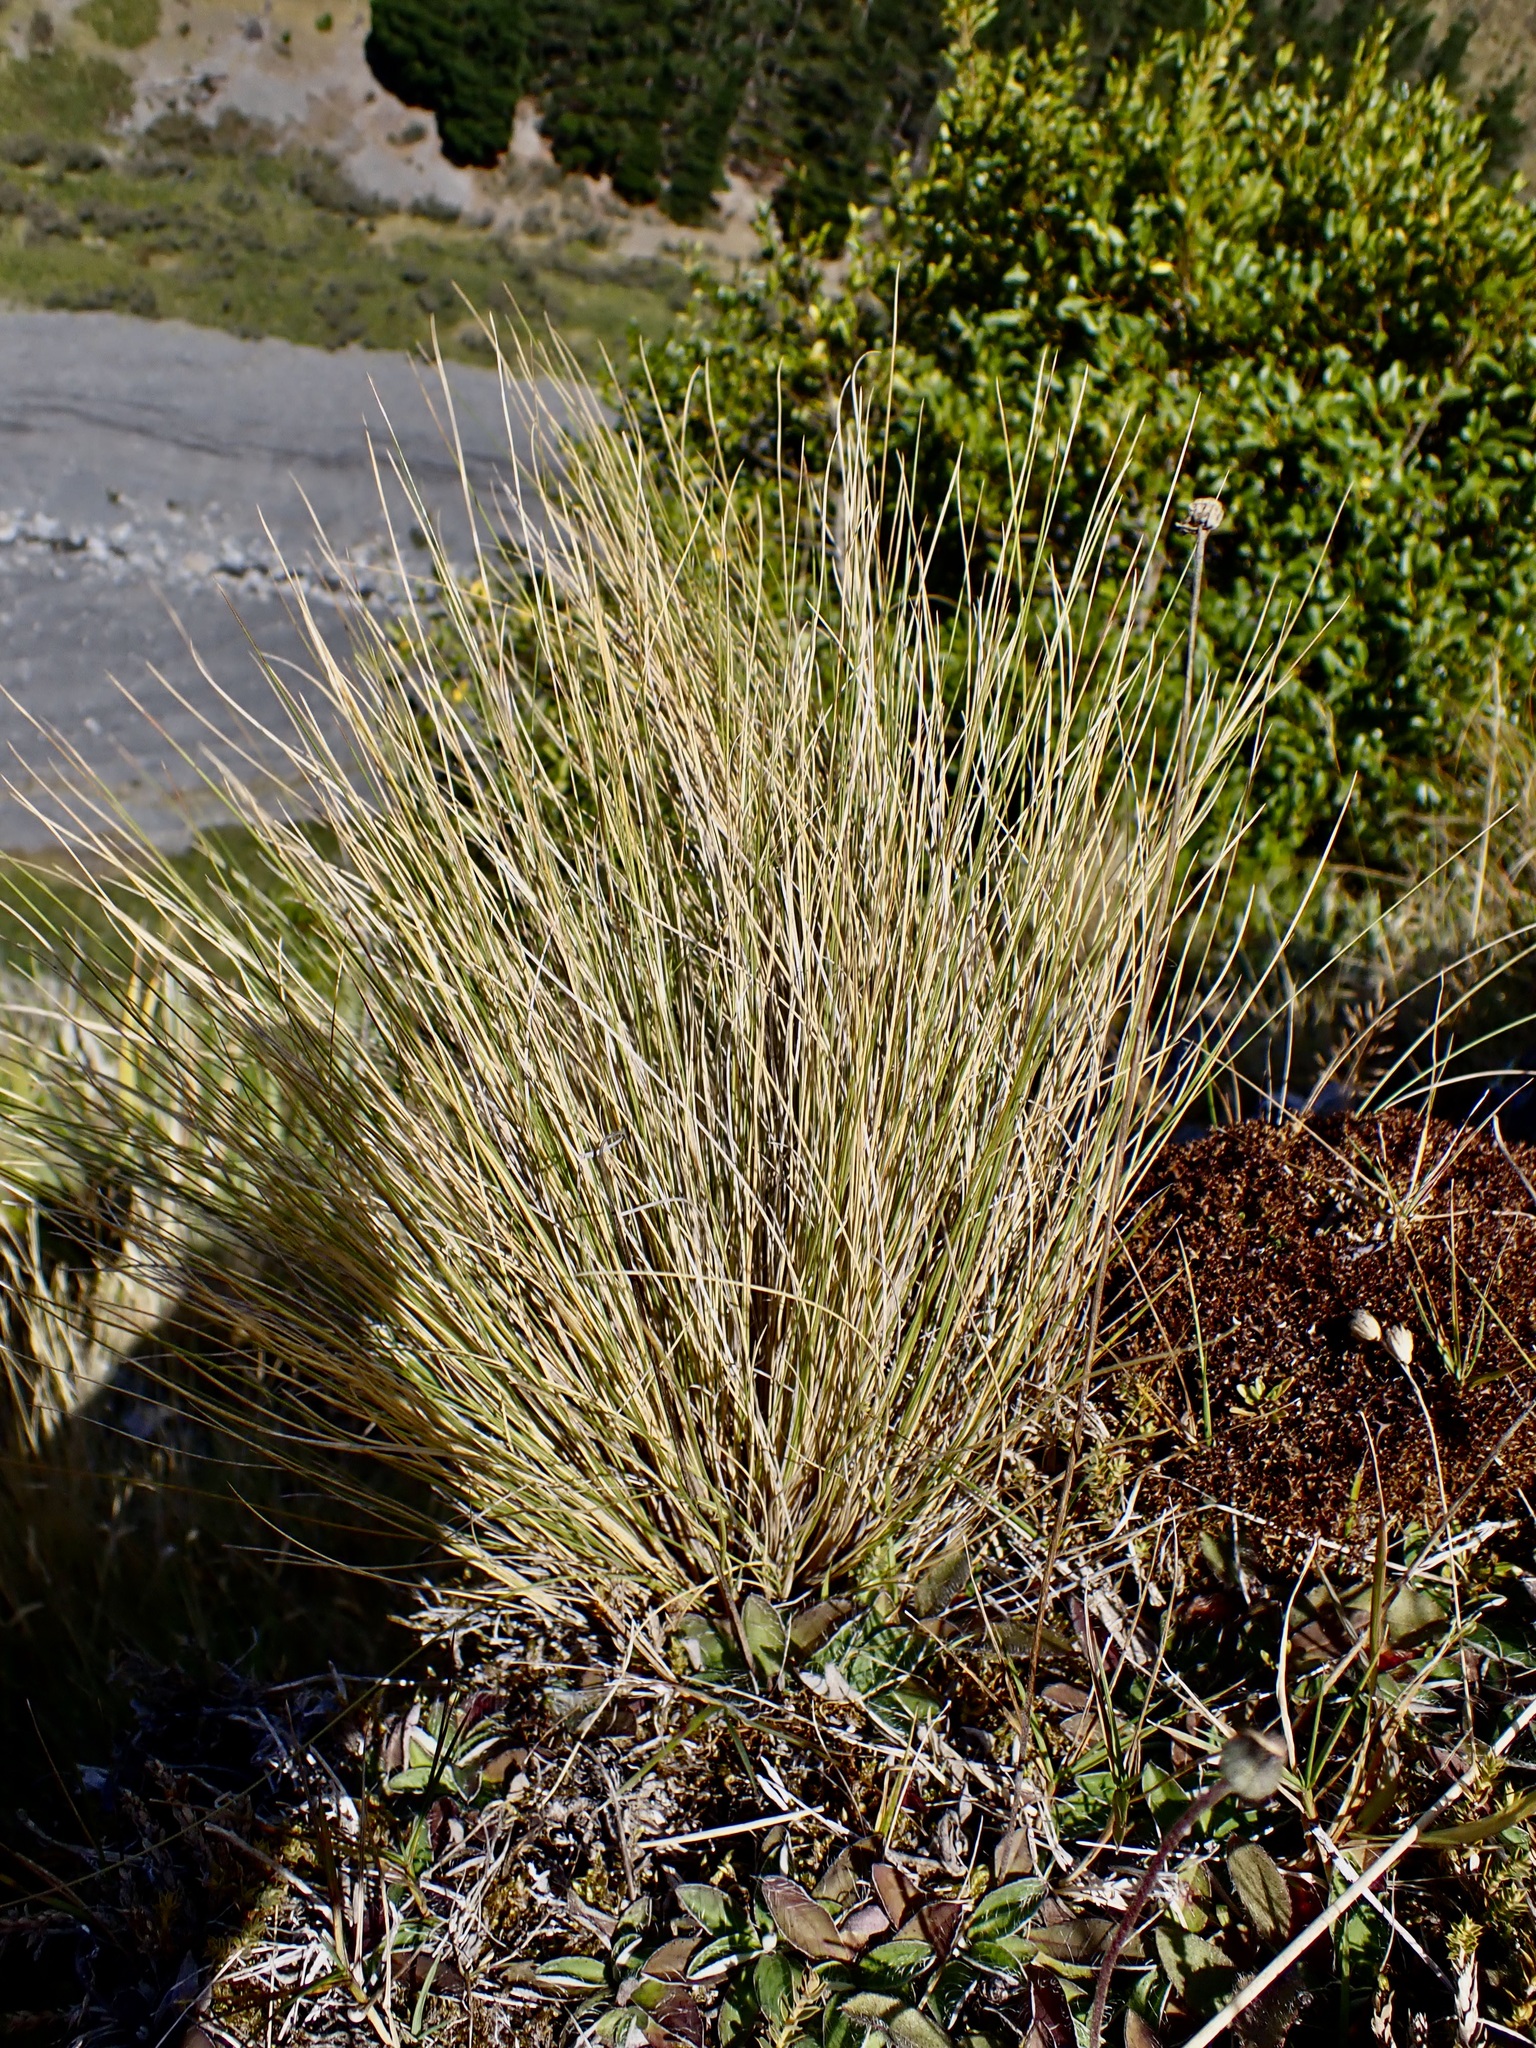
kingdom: Plantae
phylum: Tracheophyta
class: Liliopsida
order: Poales
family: Poaceae
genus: Poa
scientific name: Poa cita
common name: Silver tussock
